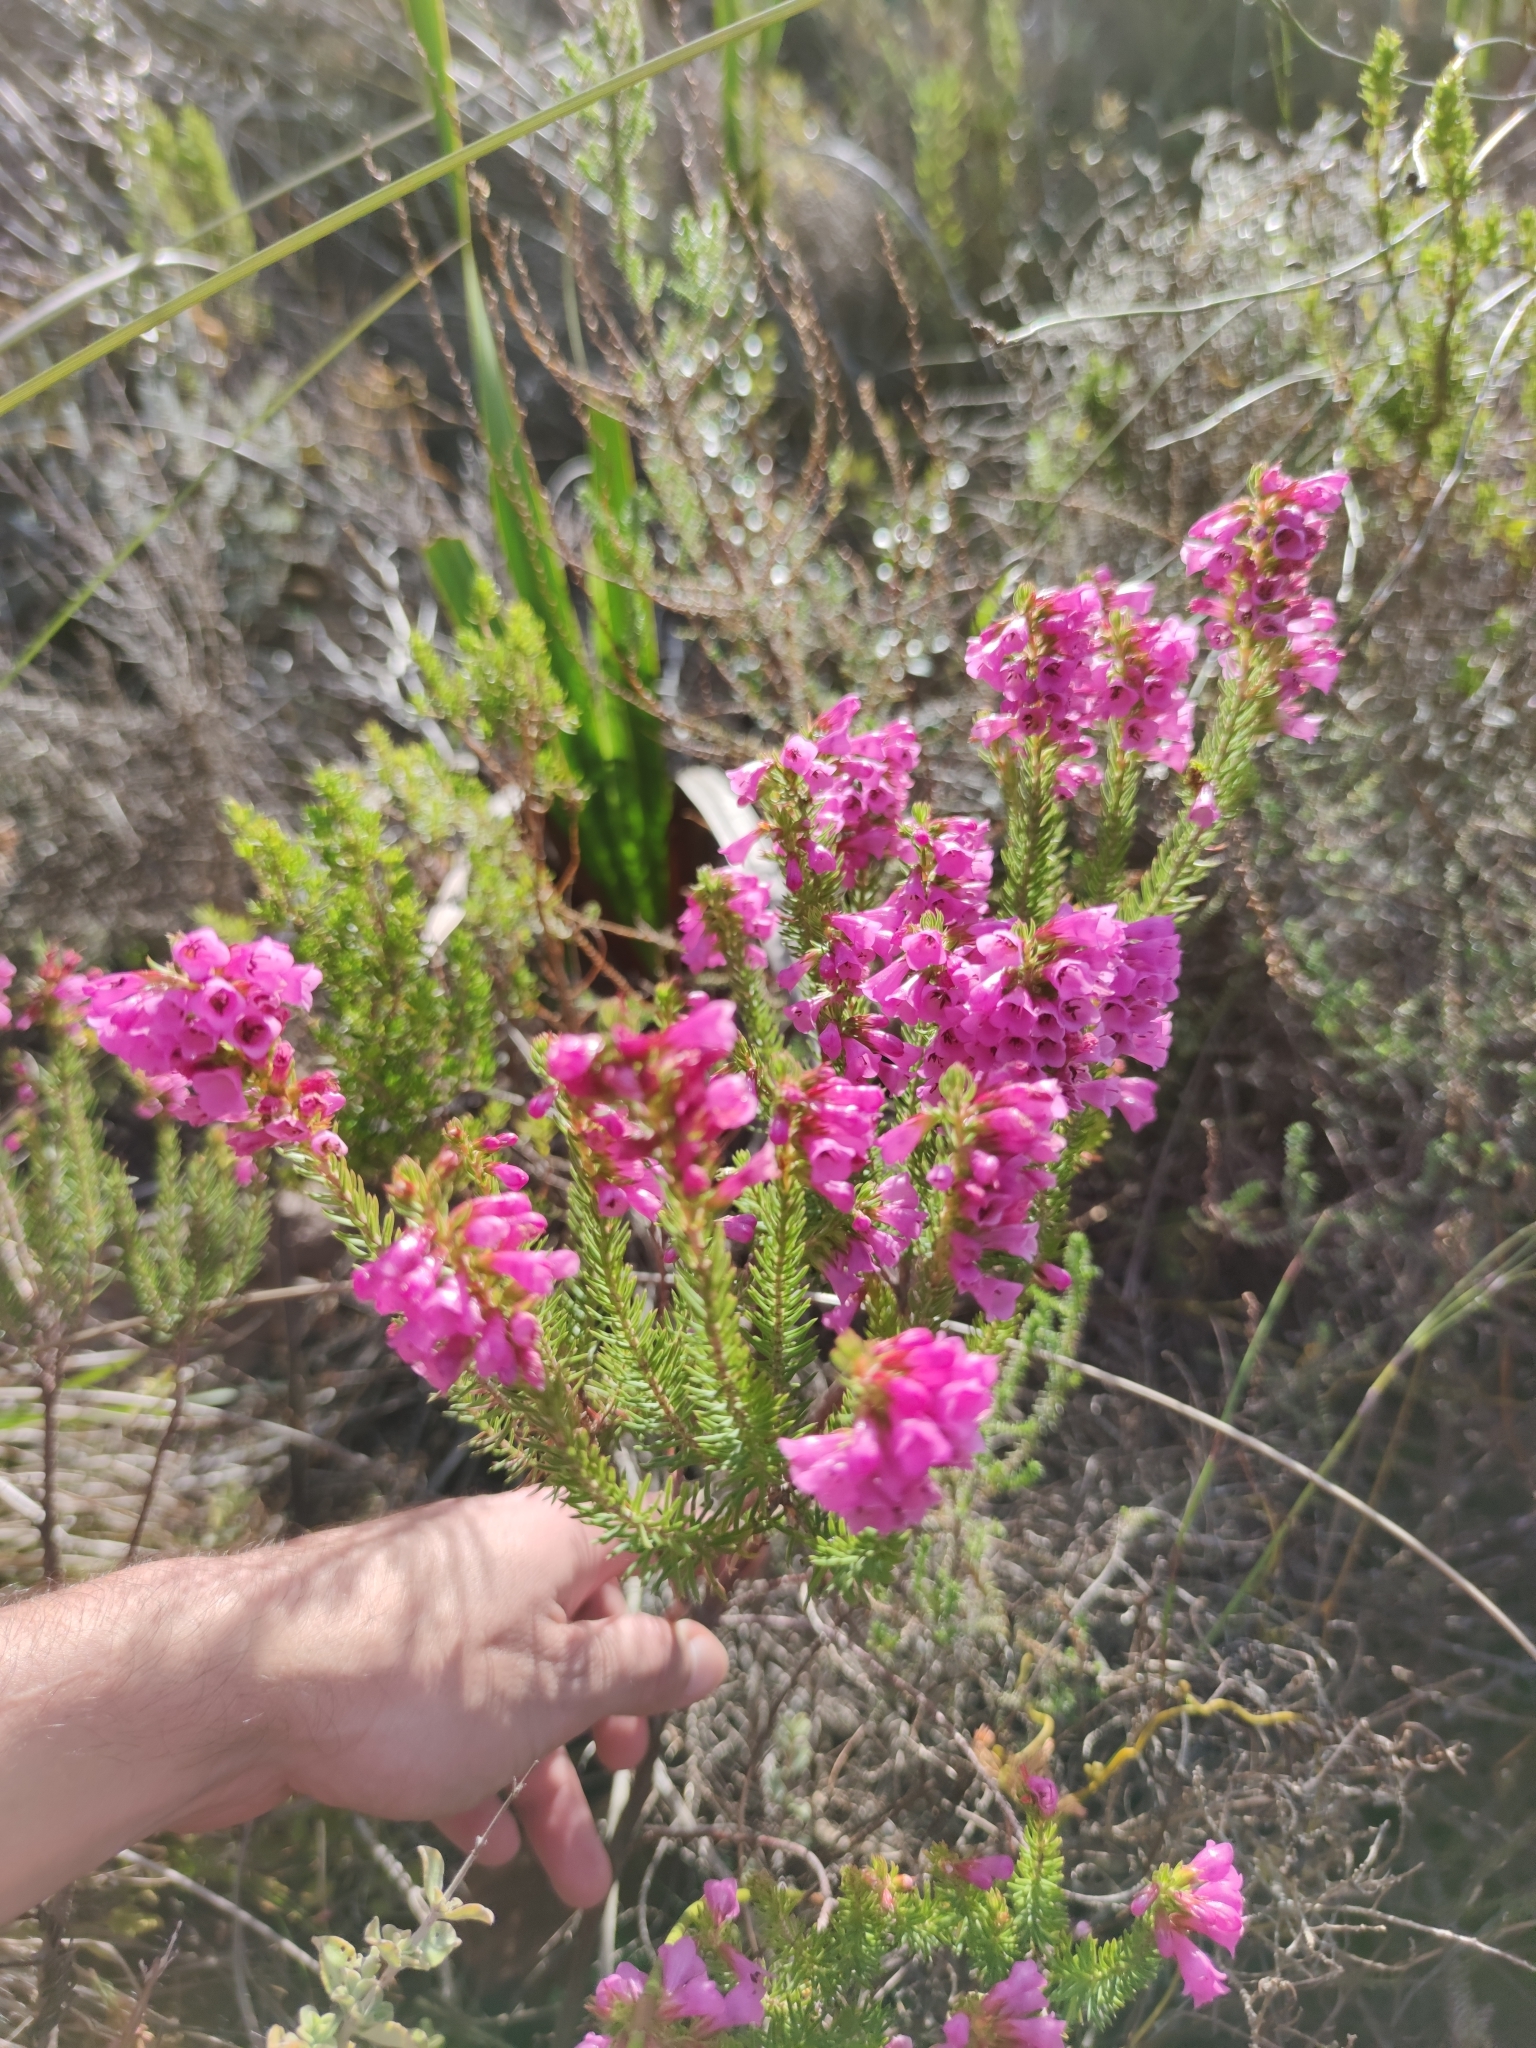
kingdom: Plantae
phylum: Tracheophyta
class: Magnoliopsida
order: Ericales
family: Ericaceae
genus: Erica
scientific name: Erica abietina
